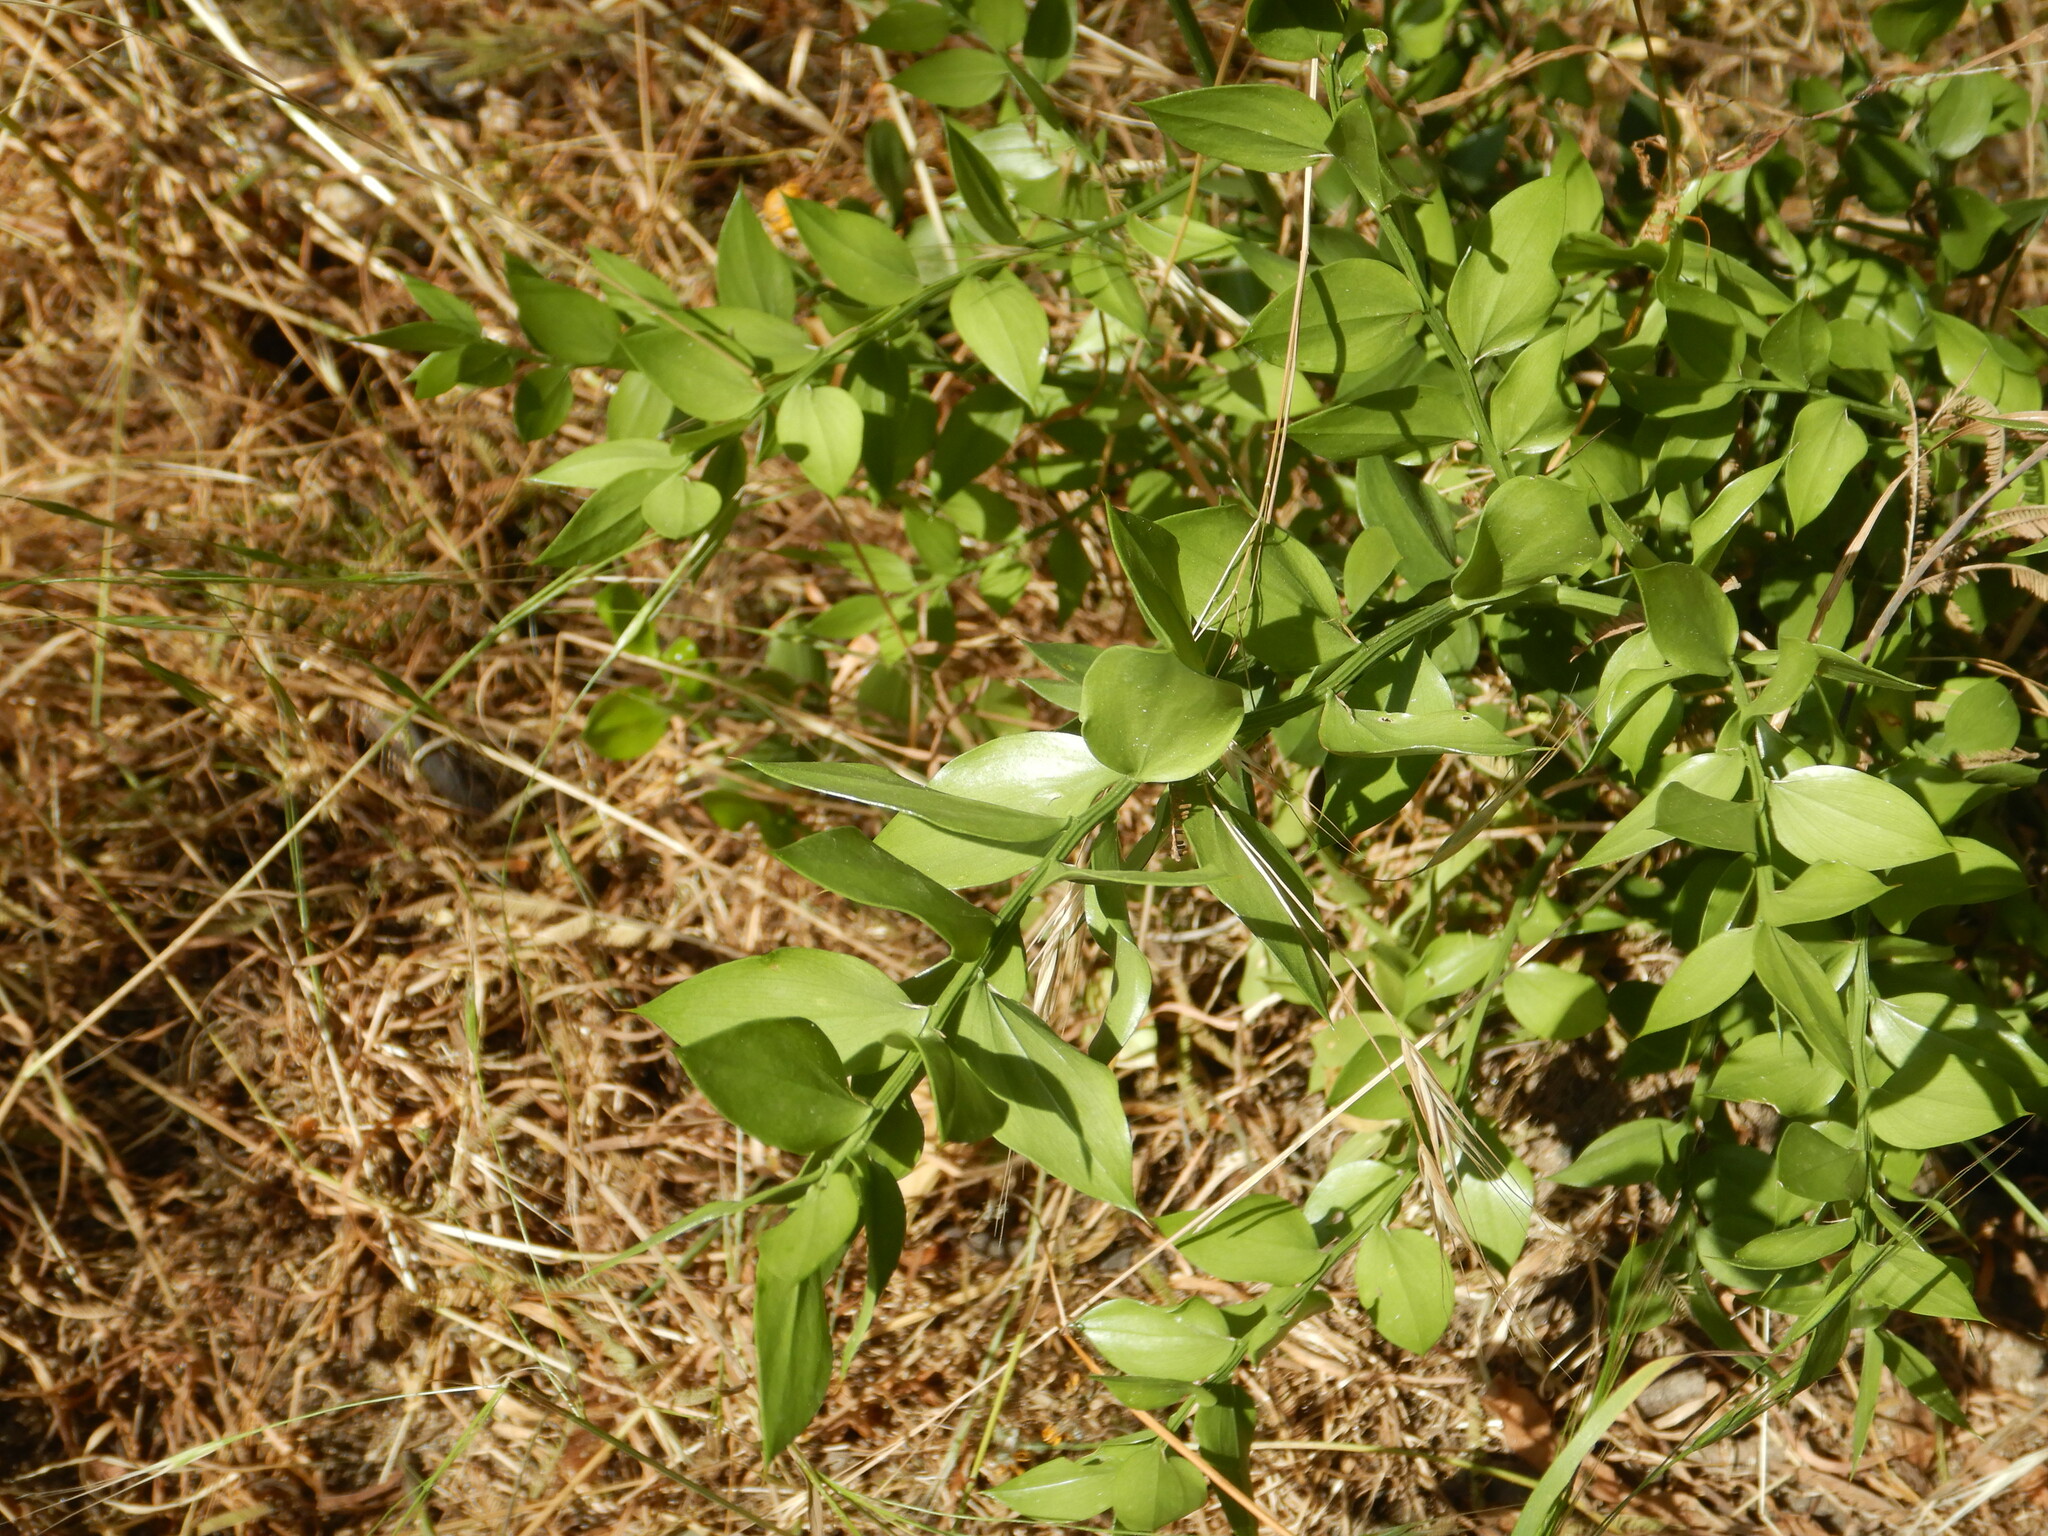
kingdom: Plantae
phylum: Tracheophyta
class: Liliopsida
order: Asparagales
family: Asparagaceae
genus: Ruscus
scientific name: Ruscus aculeatus
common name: Butcher's-broom
